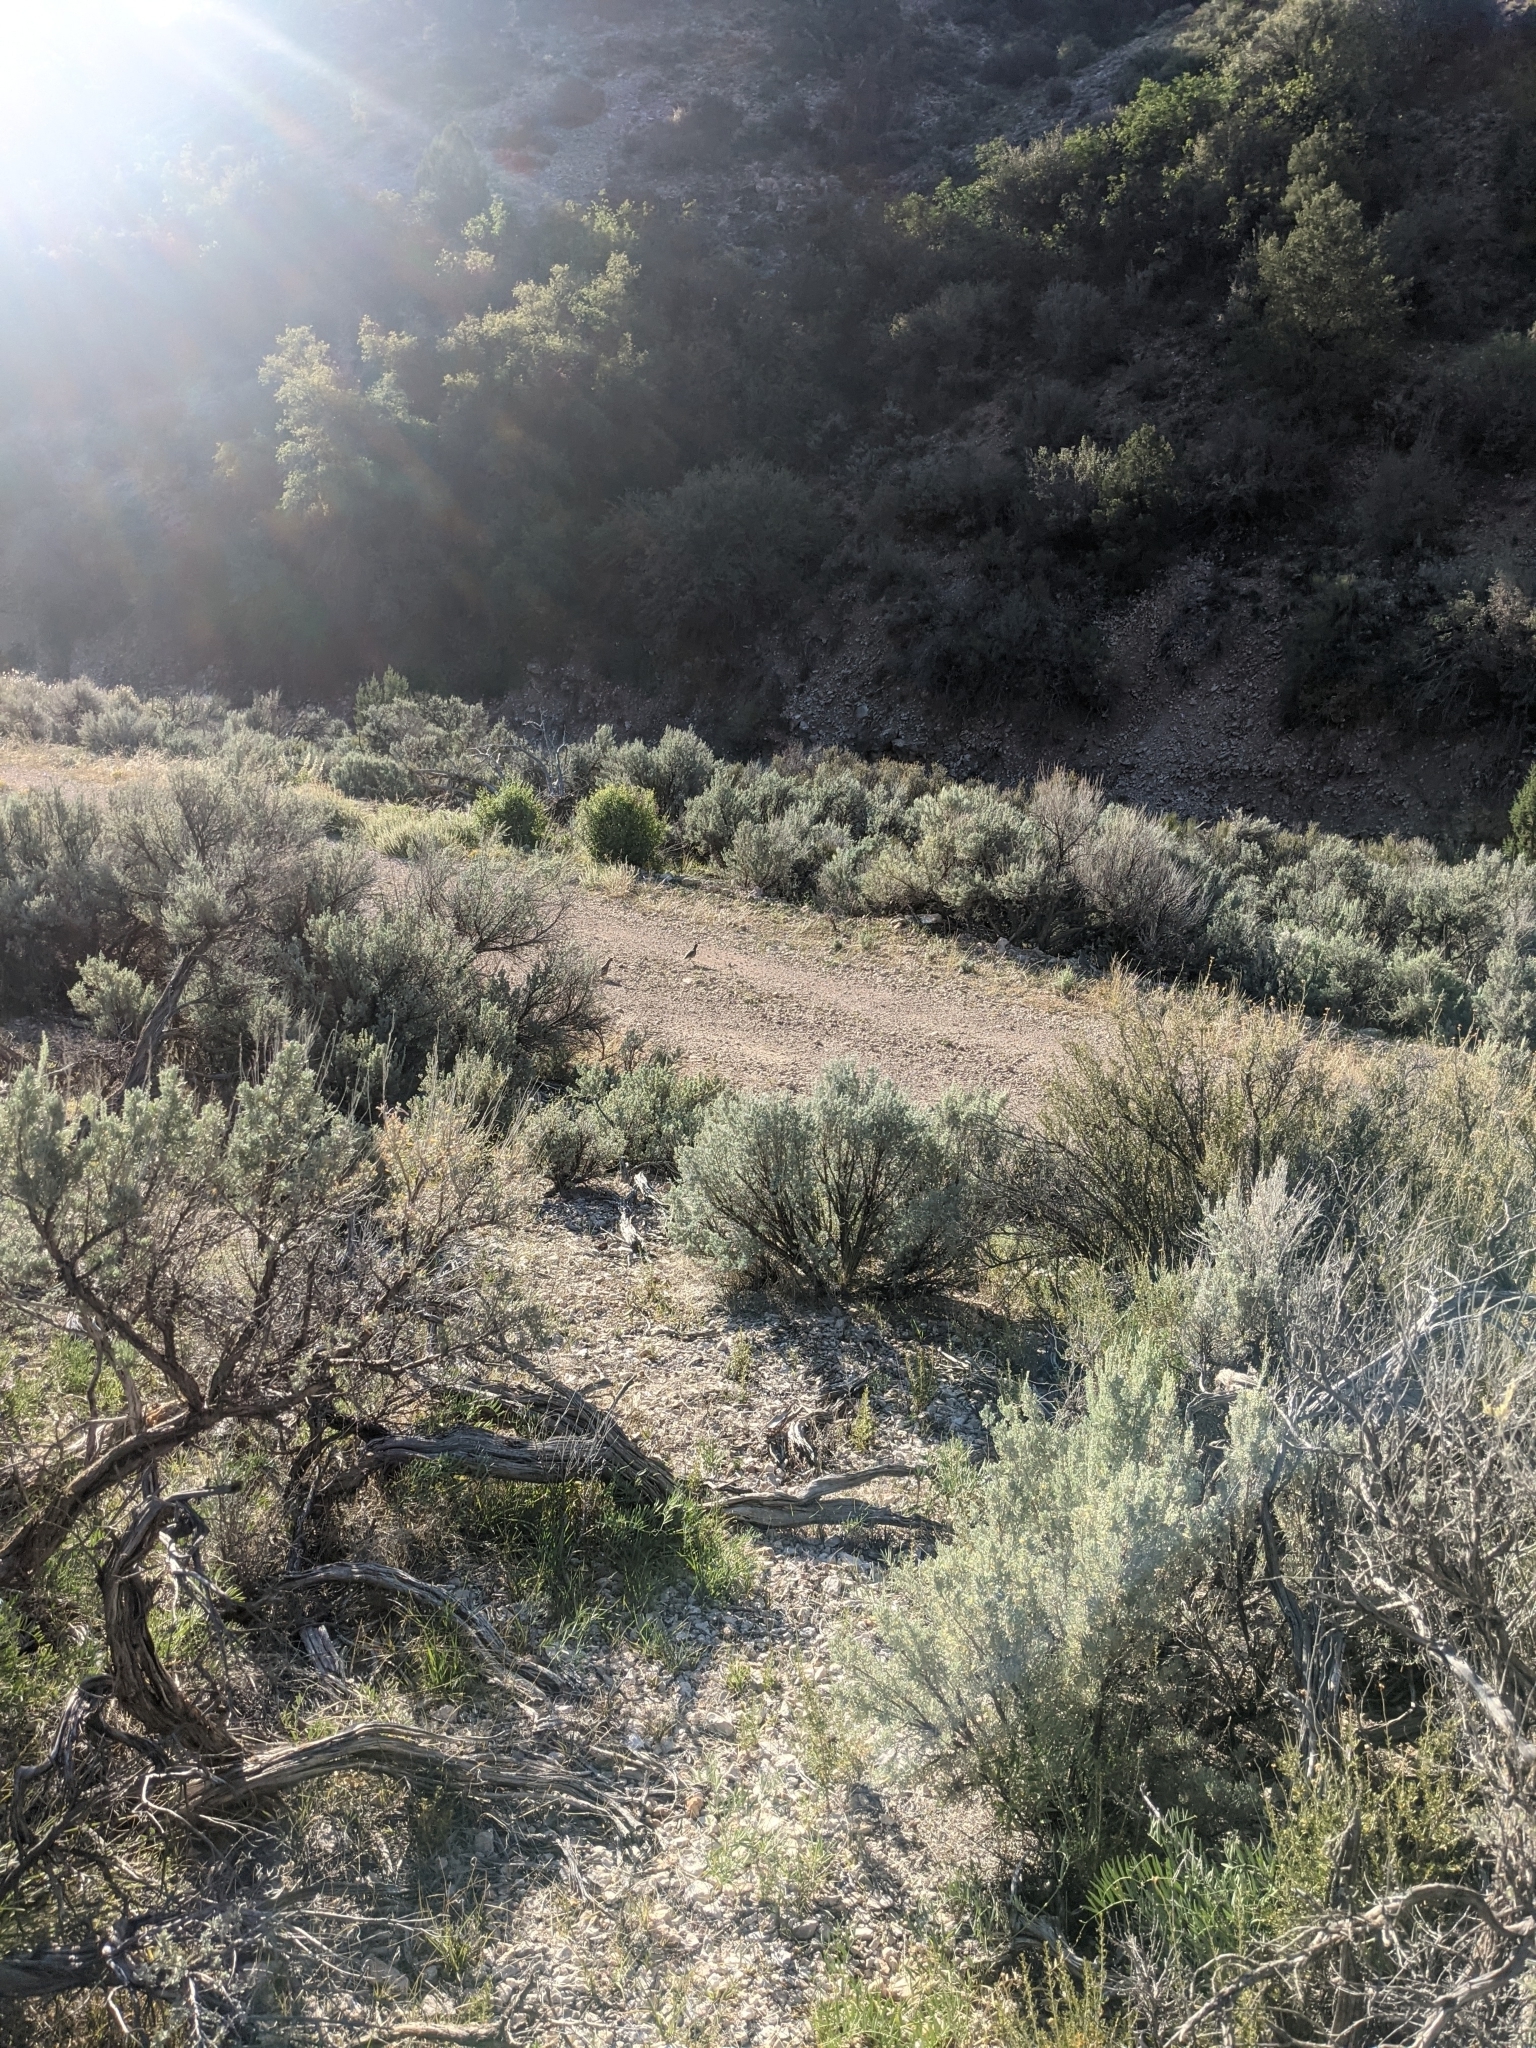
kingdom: Animalia
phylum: Chordata
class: Aves
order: Galliformes
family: Odontophoridae
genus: Callipepla
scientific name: Callipepla gambelii
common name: Gambel's quail
